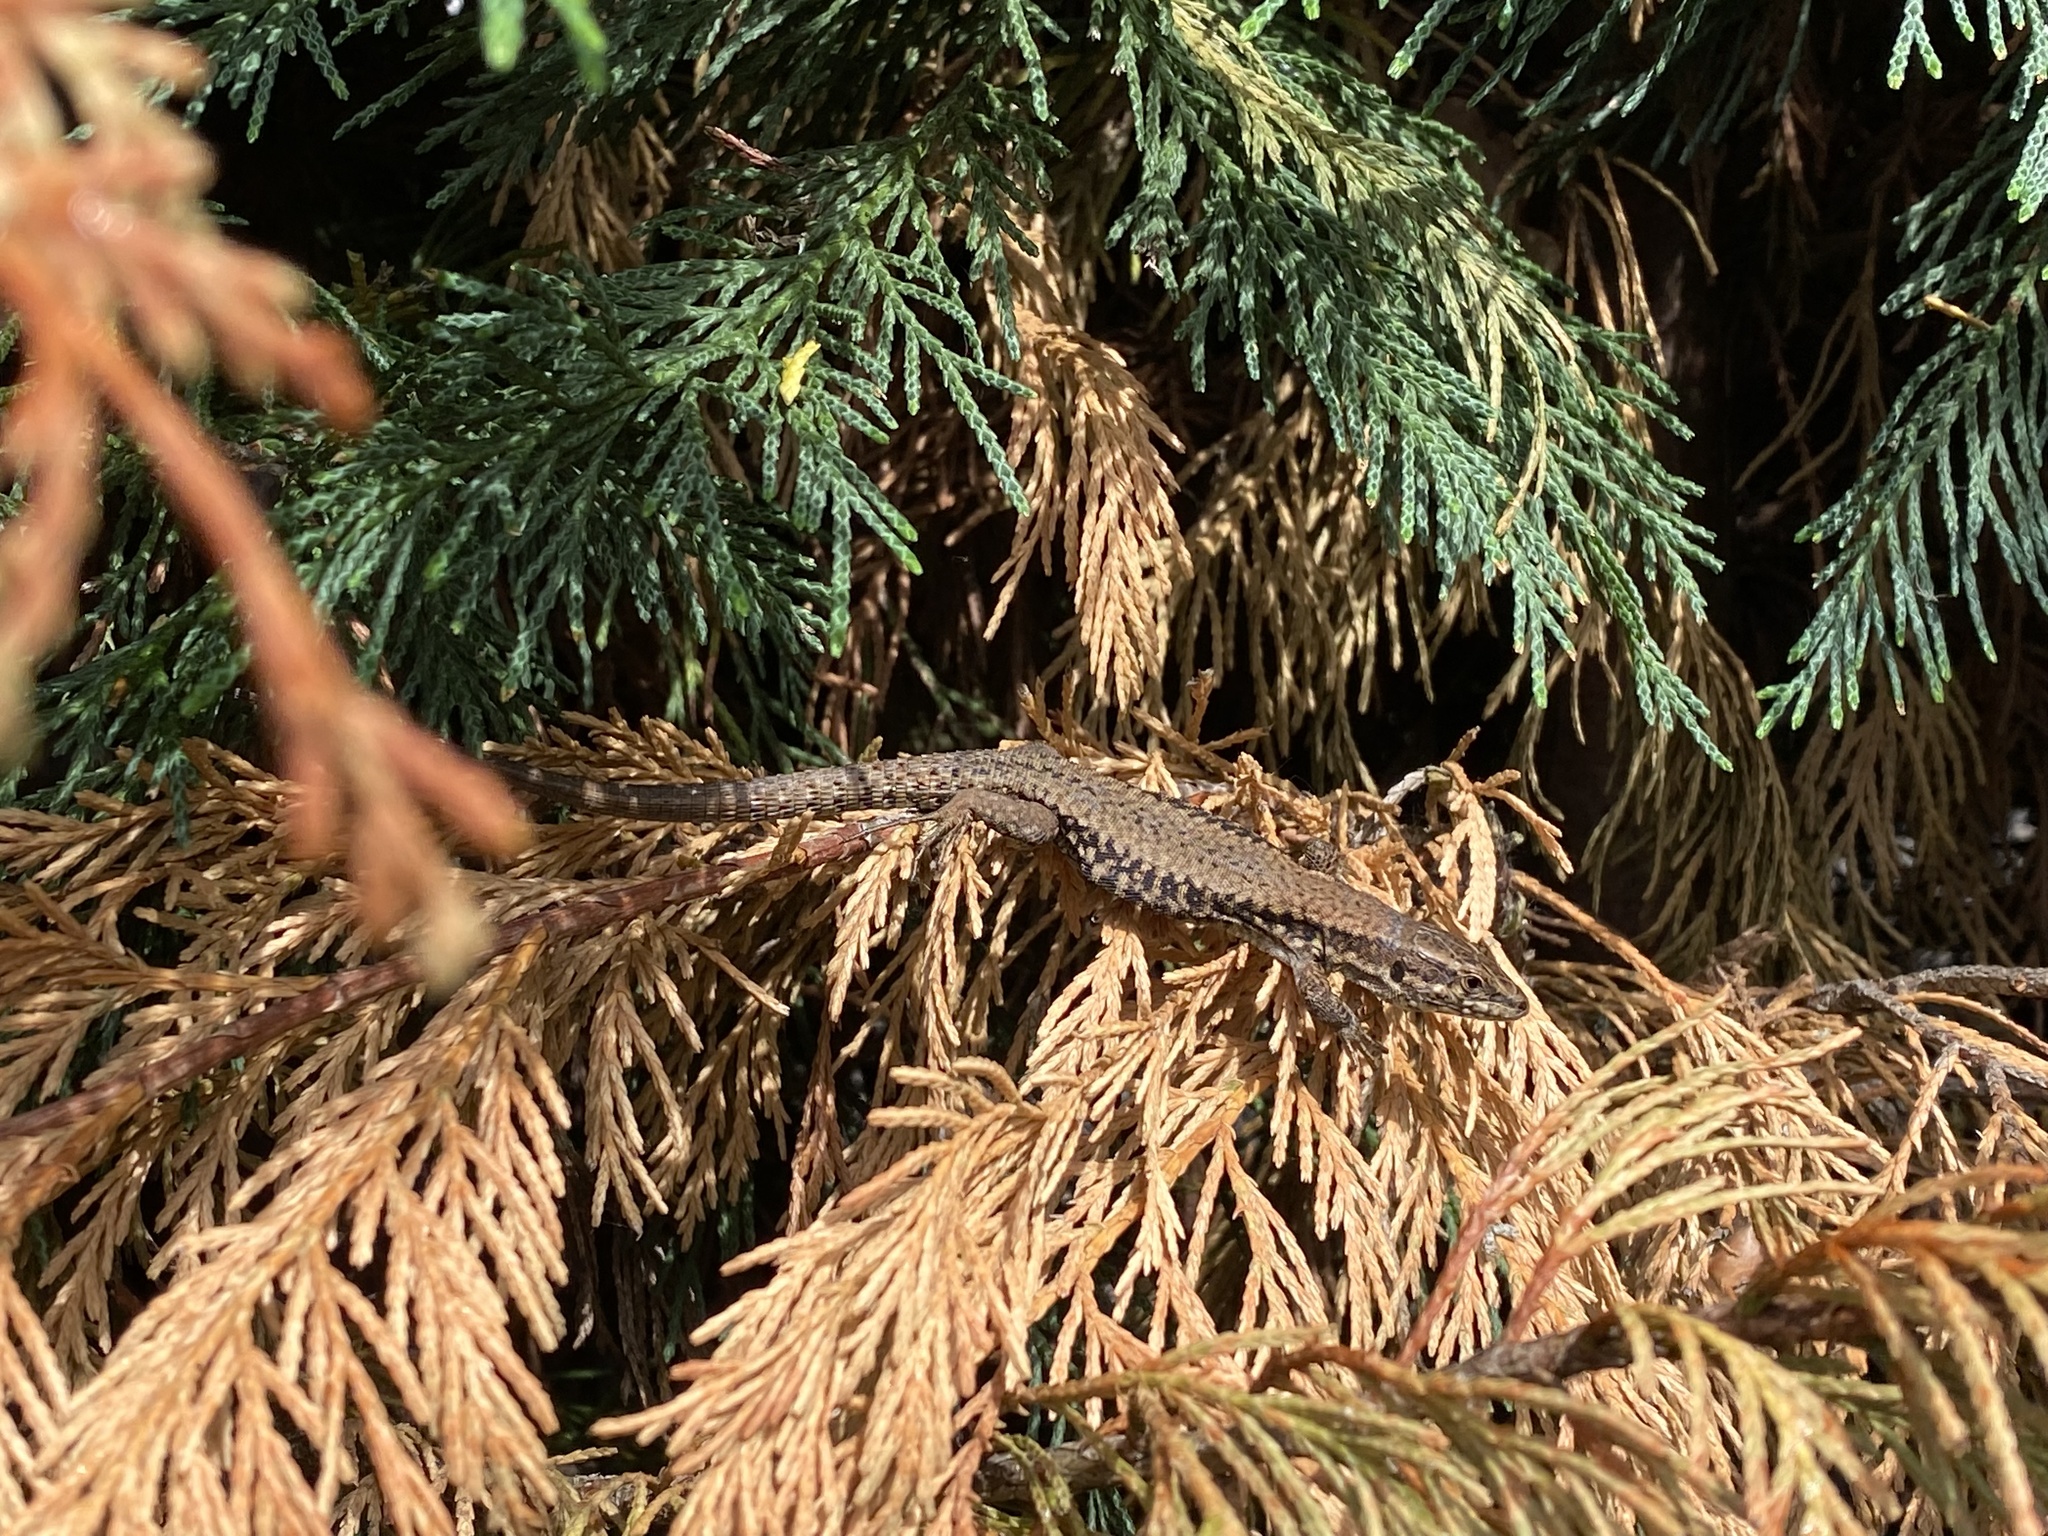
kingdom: Animalia
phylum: Chordata
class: Squamata
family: Lacertidae
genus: Podarcis
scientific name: Podarcis muralis
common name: Common wall lizard
